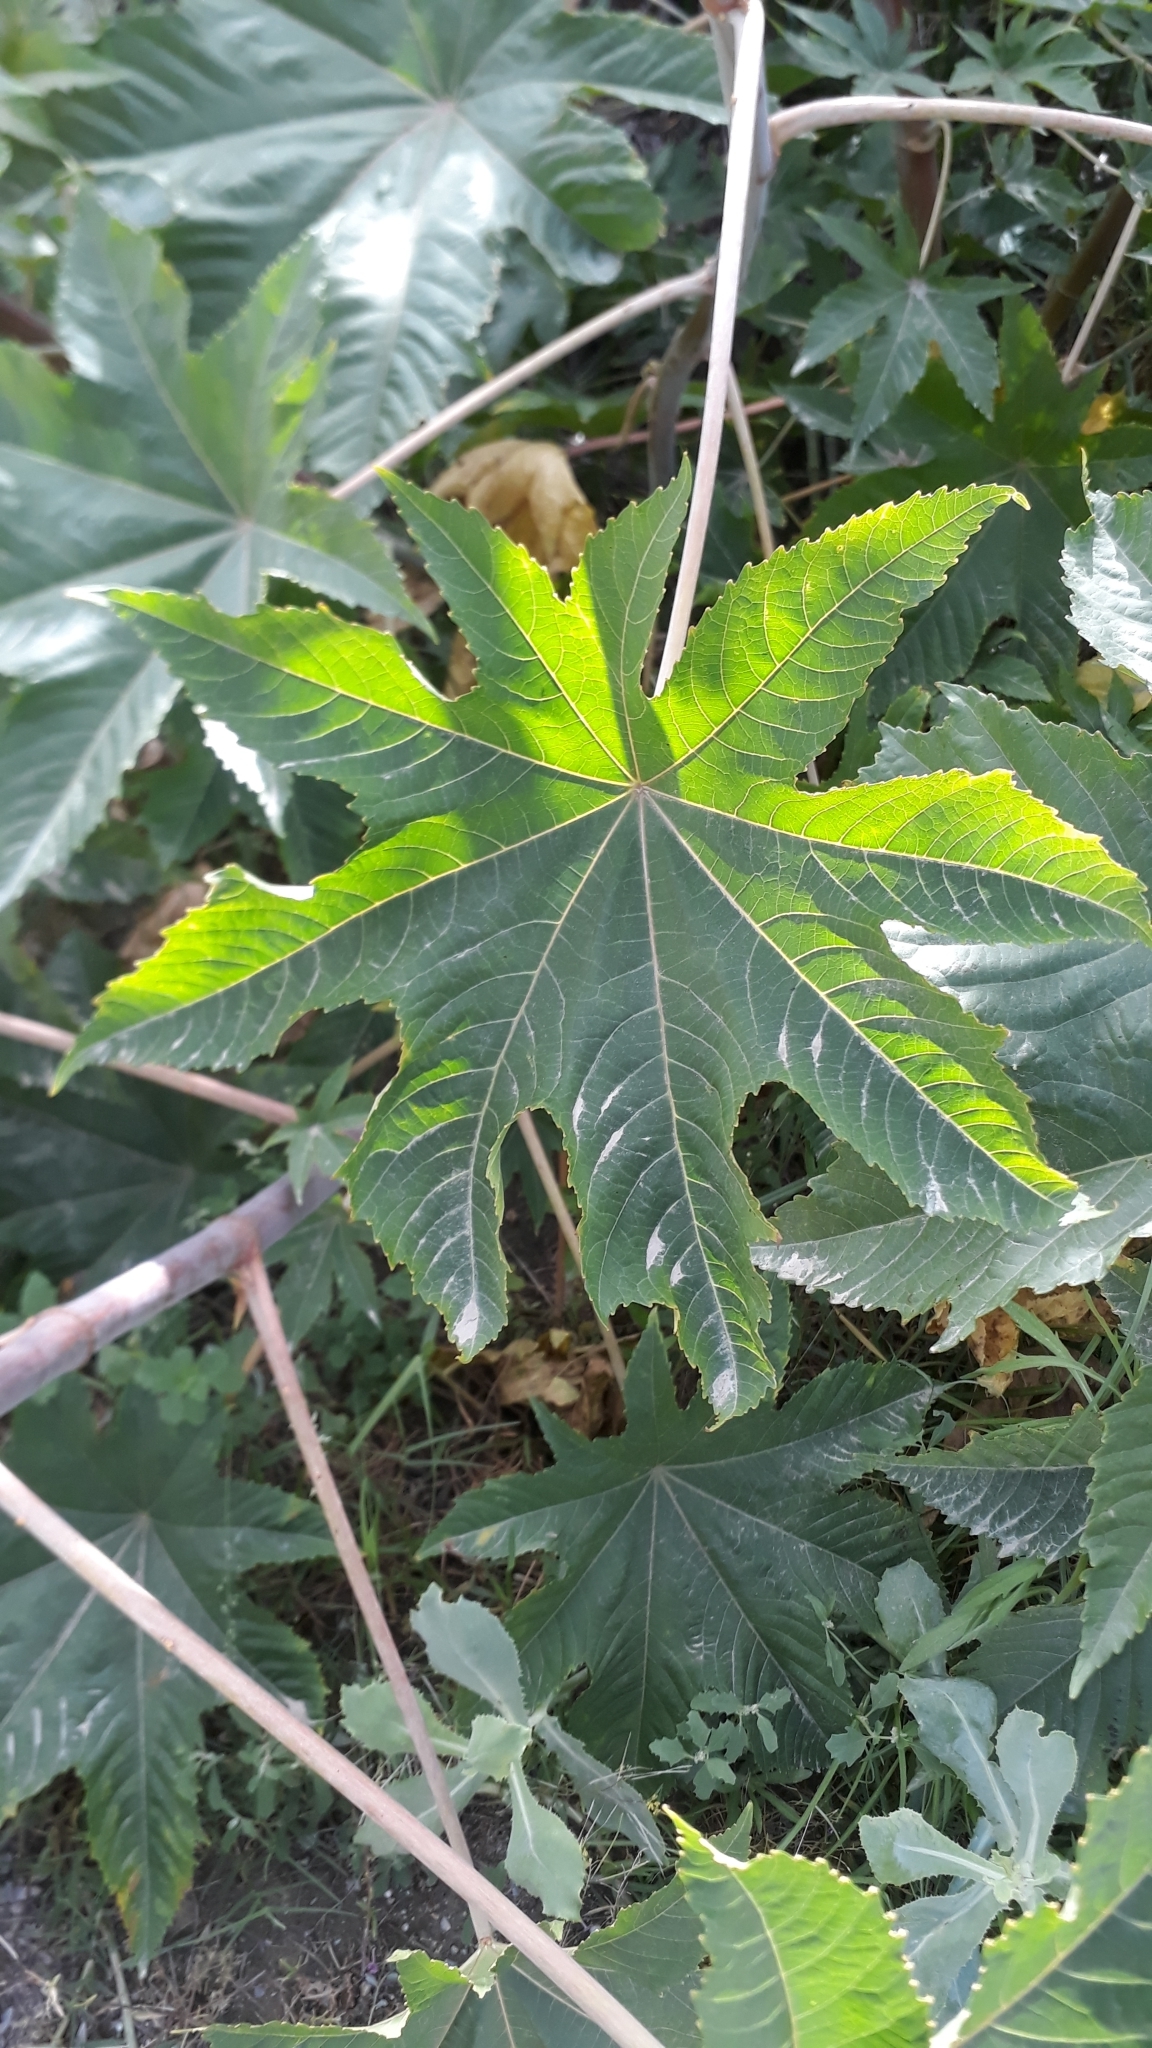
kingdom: Plantae
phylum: Tracheophyta
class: Magnoliopsida
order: Malpighiales
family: Euphorbiaceae
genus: Ricinus
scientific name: Ricinus communis
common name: Castor-oil-plant
